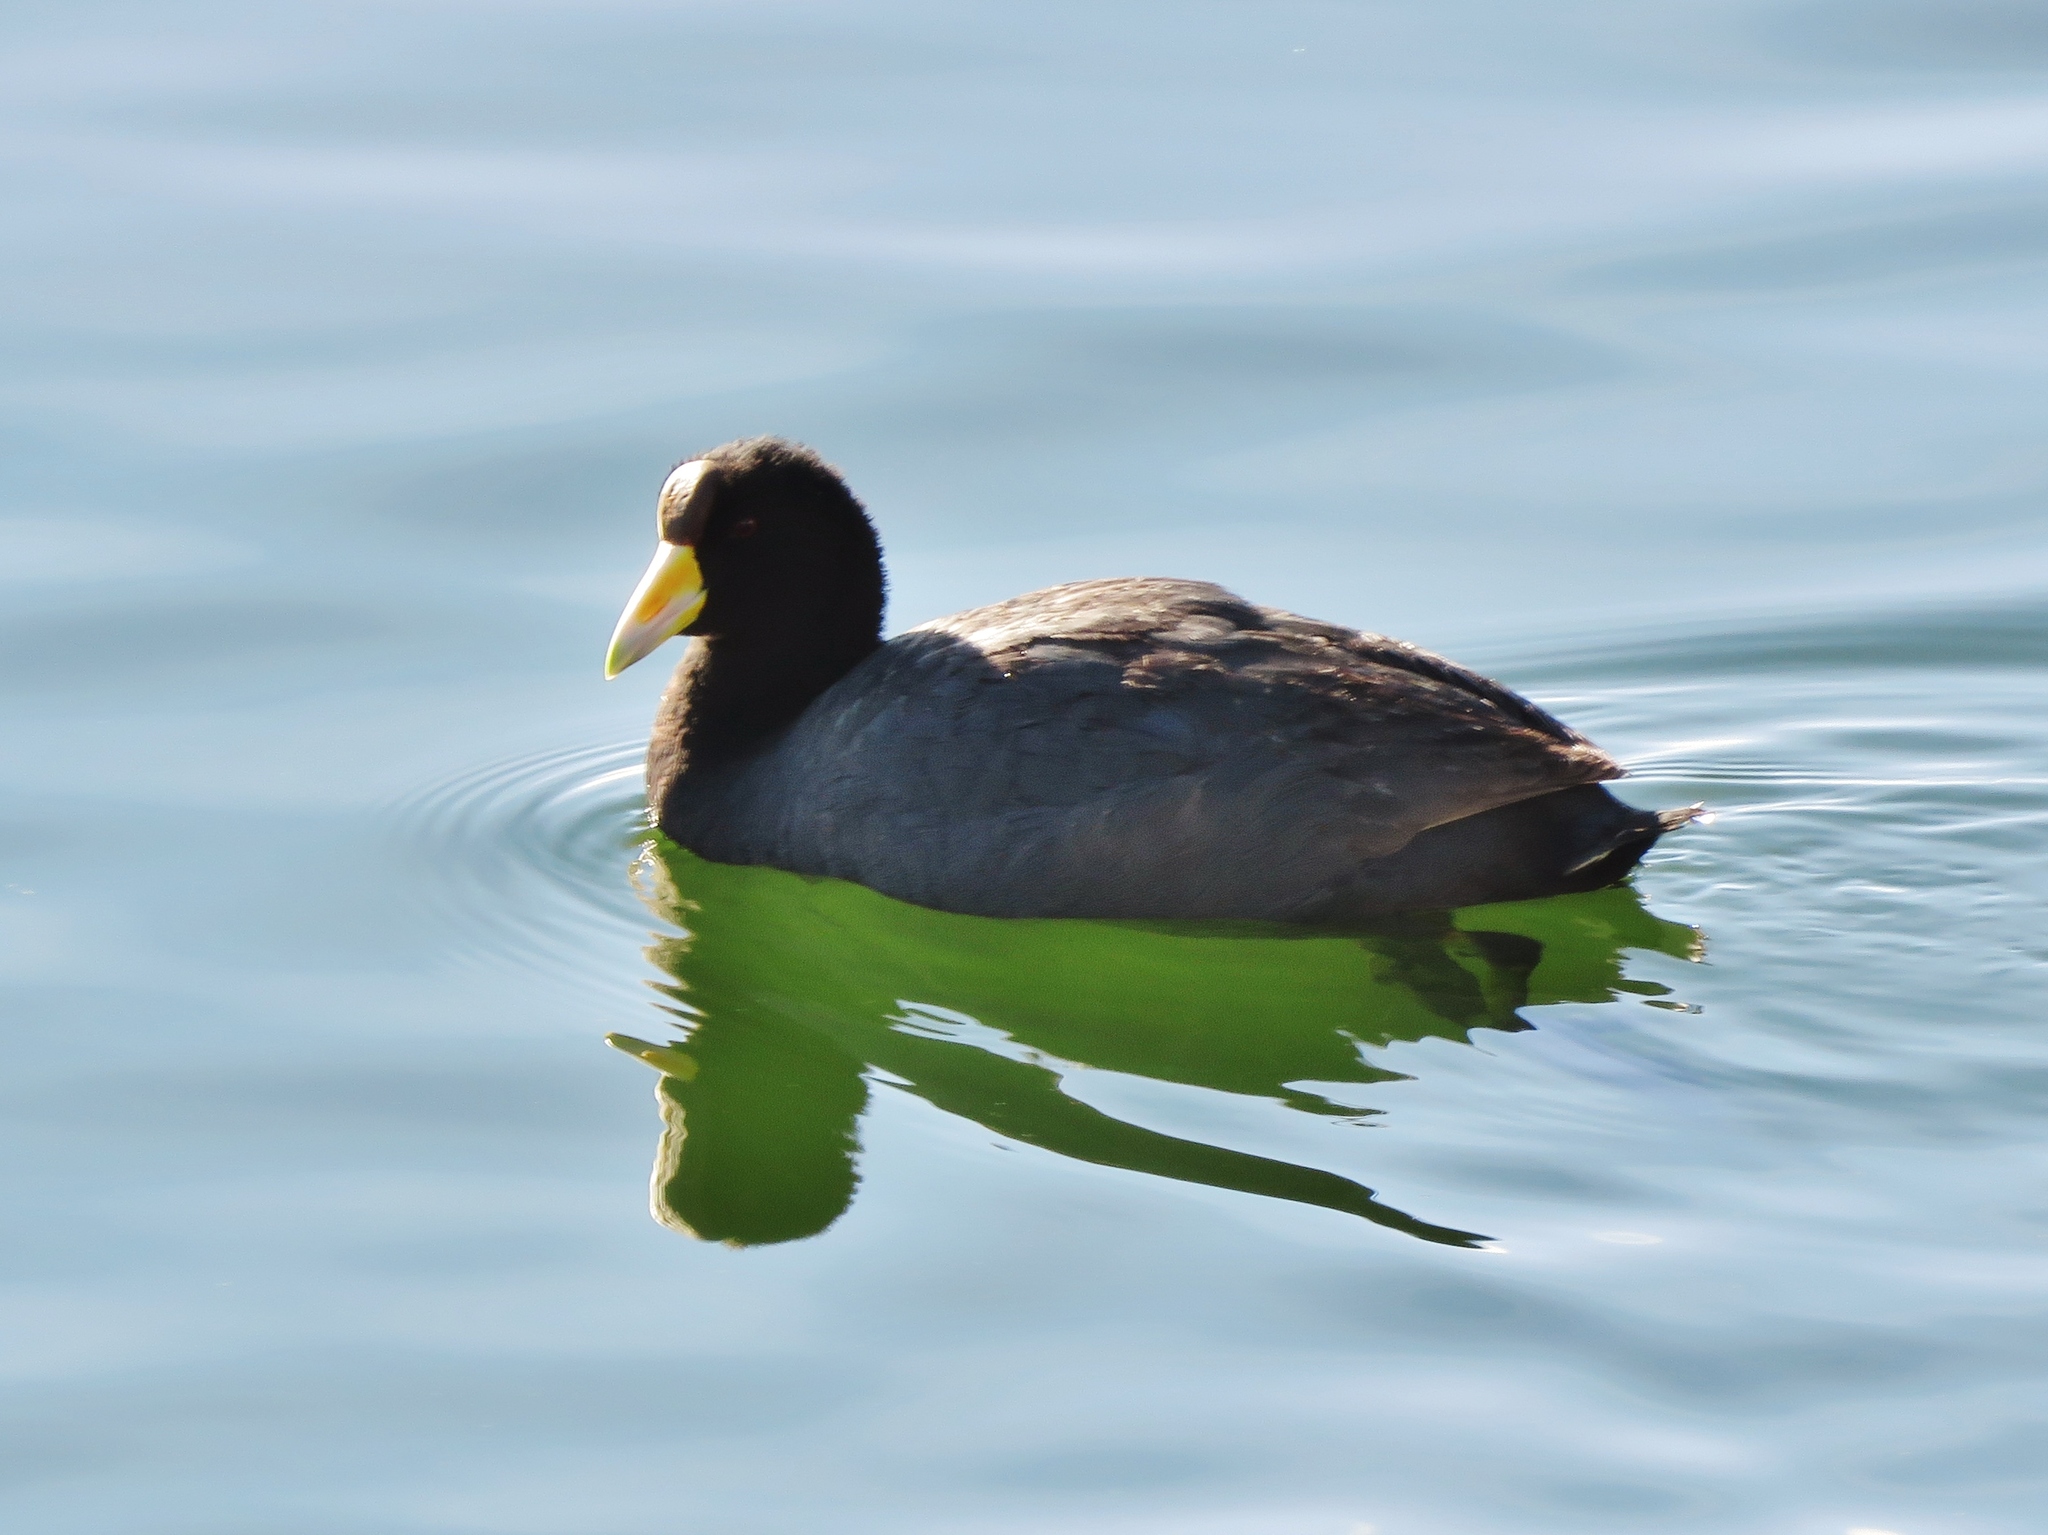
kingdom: Animalia
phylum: Chordata
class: Aves
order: Gruiformes
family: Rallidae
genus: Fulica
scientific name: Fulica ardesiaca
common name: Andean coot
